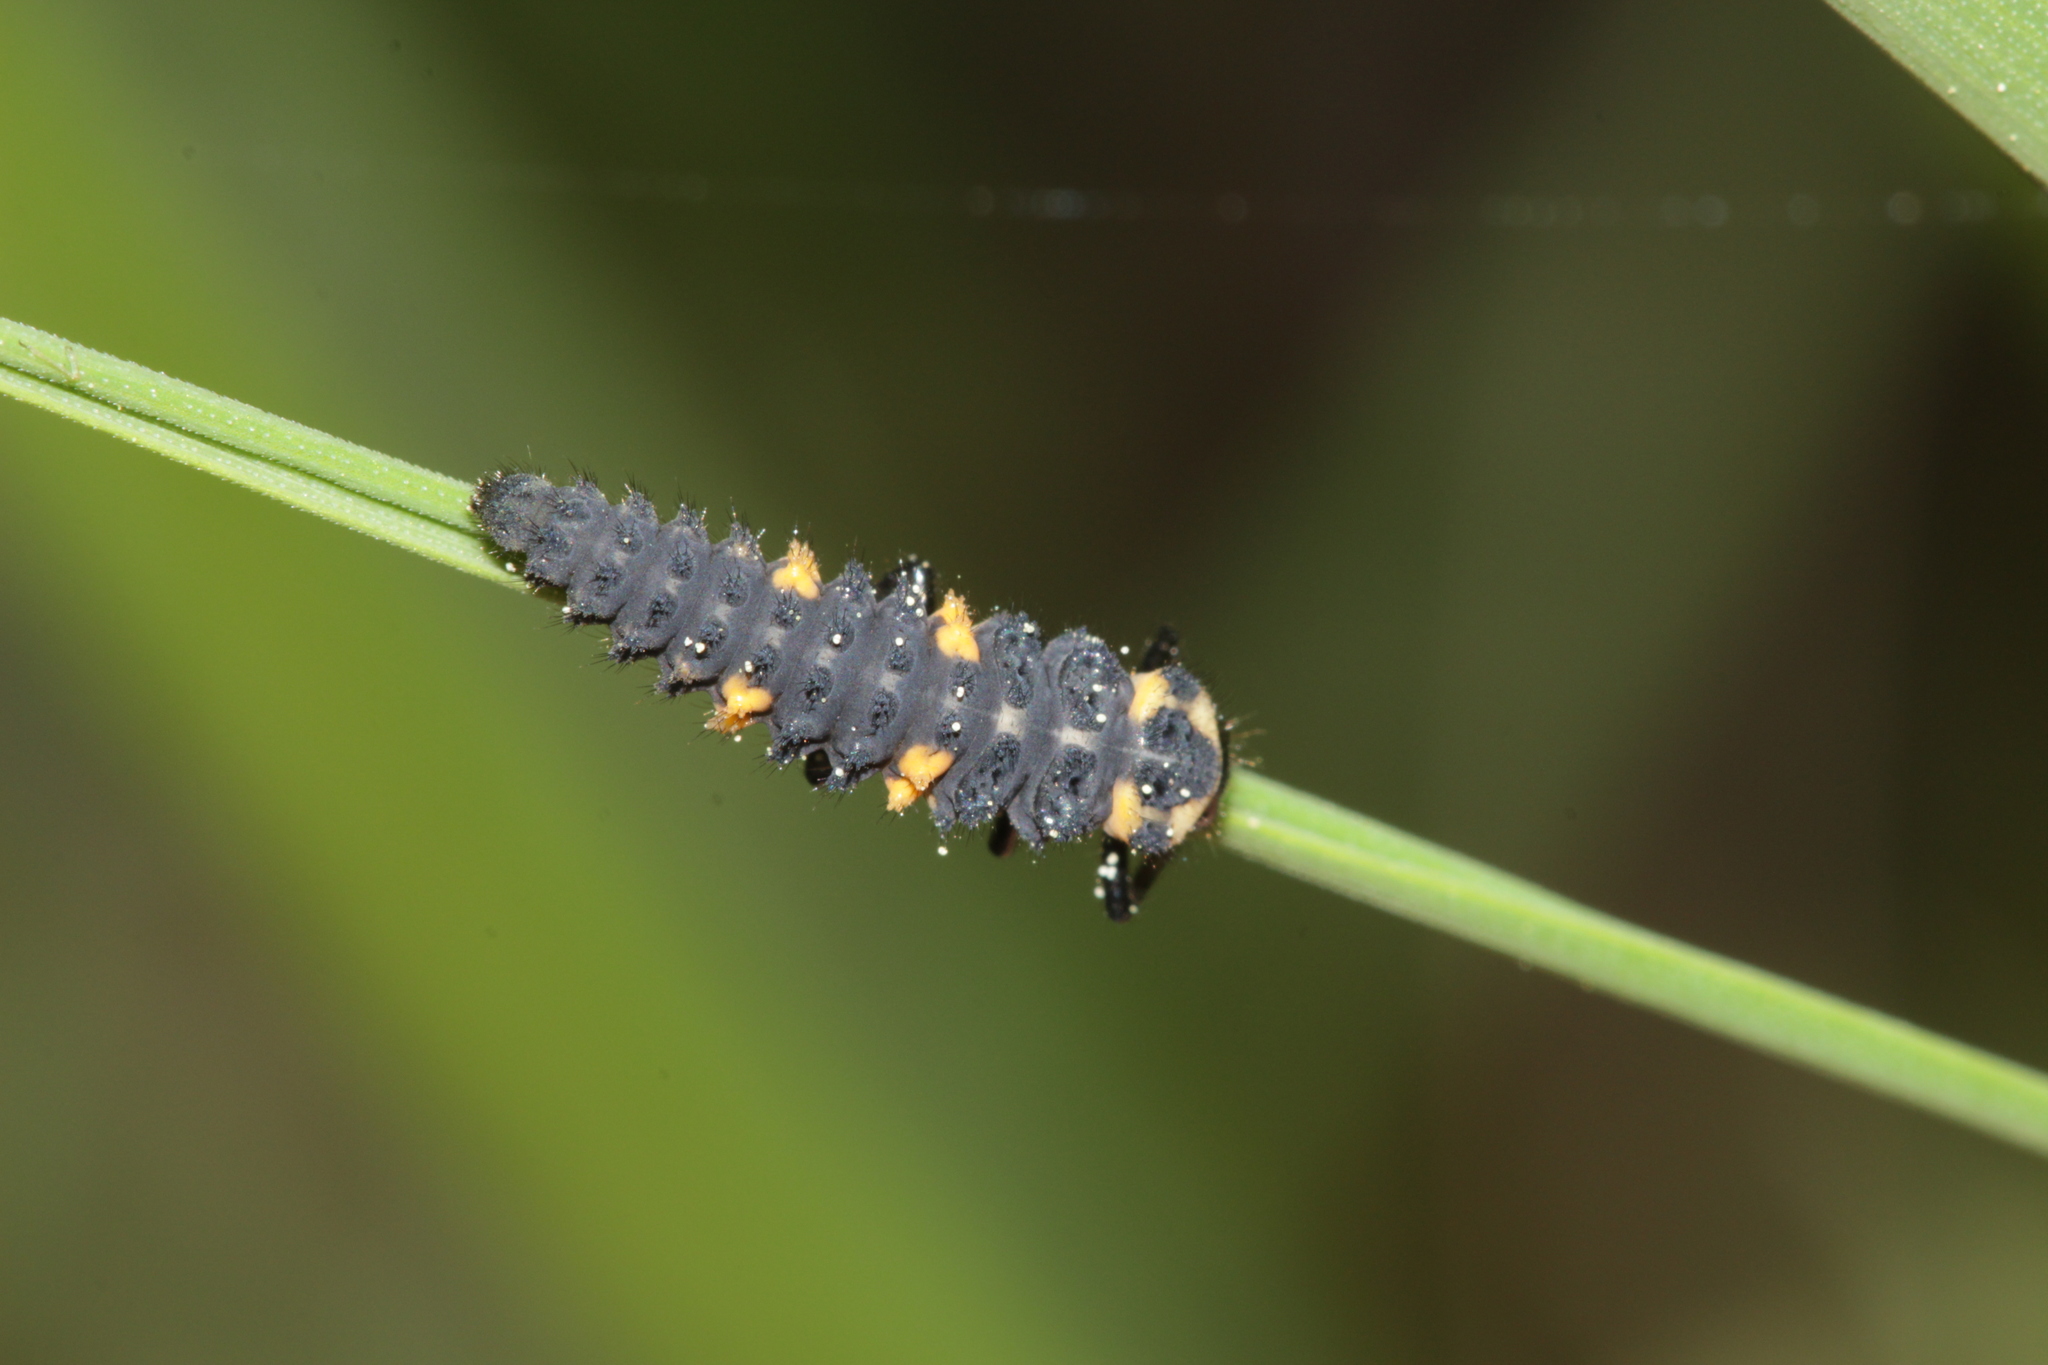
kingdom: Animalia
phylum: Arthropoda
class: Insecta
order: Coleoptera
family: Coccinellidae
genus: Coccinella
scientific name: Coccinella septempunctata
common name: Sevenspotted lady beetle
